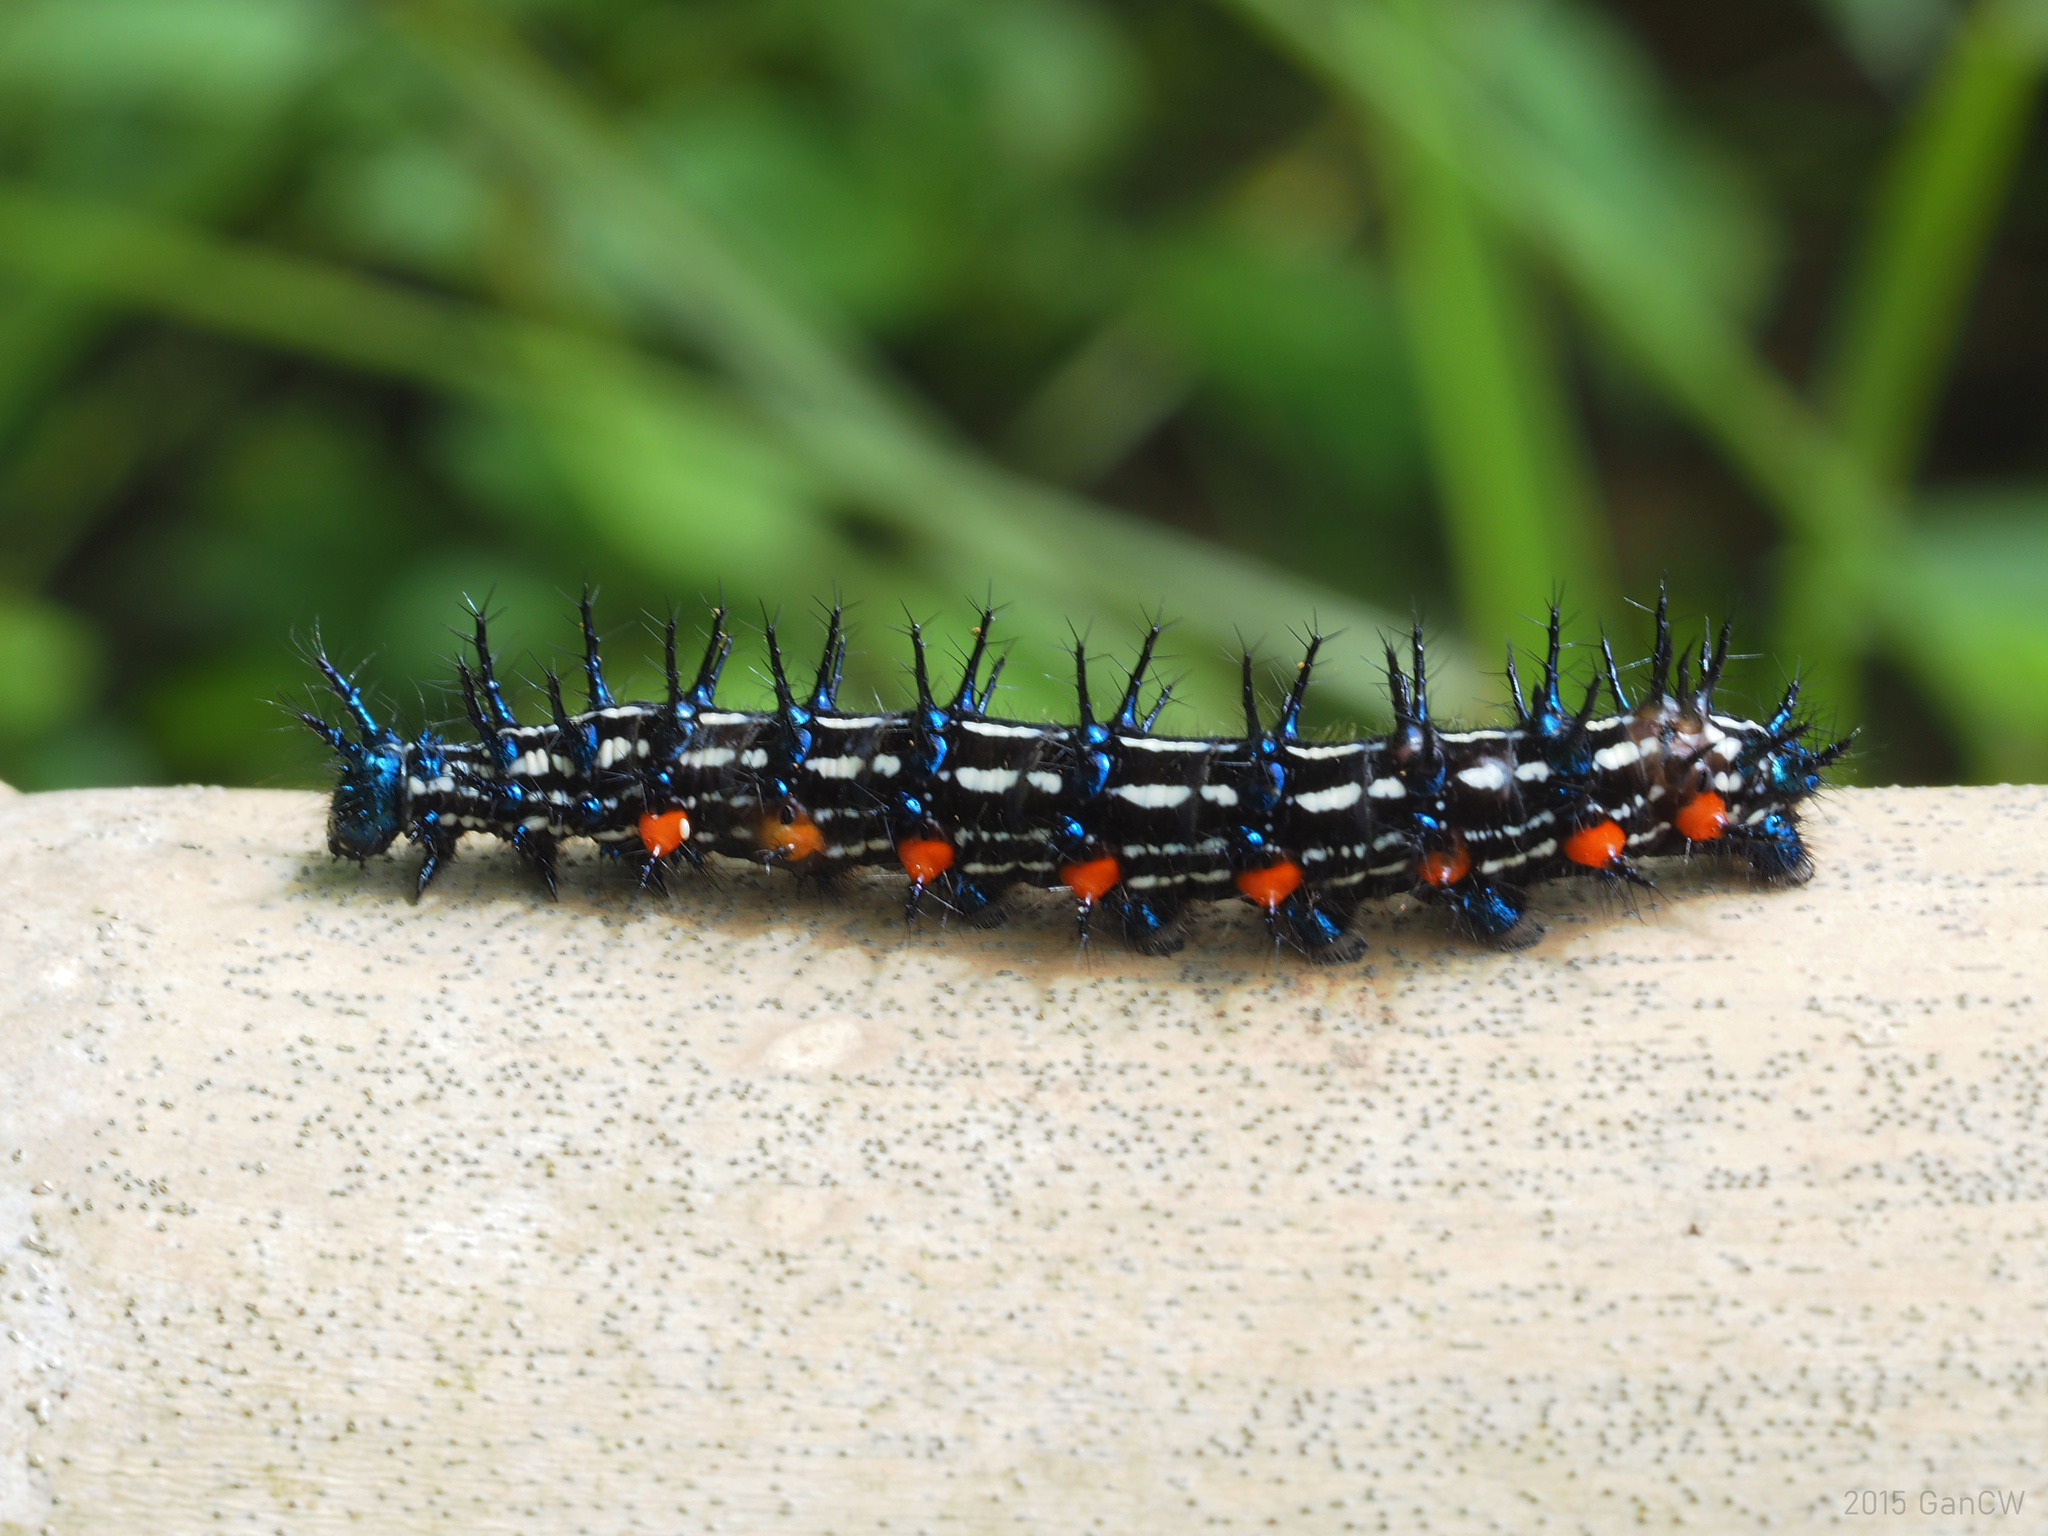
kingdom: Animalia
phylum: Arthropoda
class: Insecta
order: Lepidoptera
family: Nymphalidae
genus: Doleschallia
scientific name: Doleschallia bisaltide
